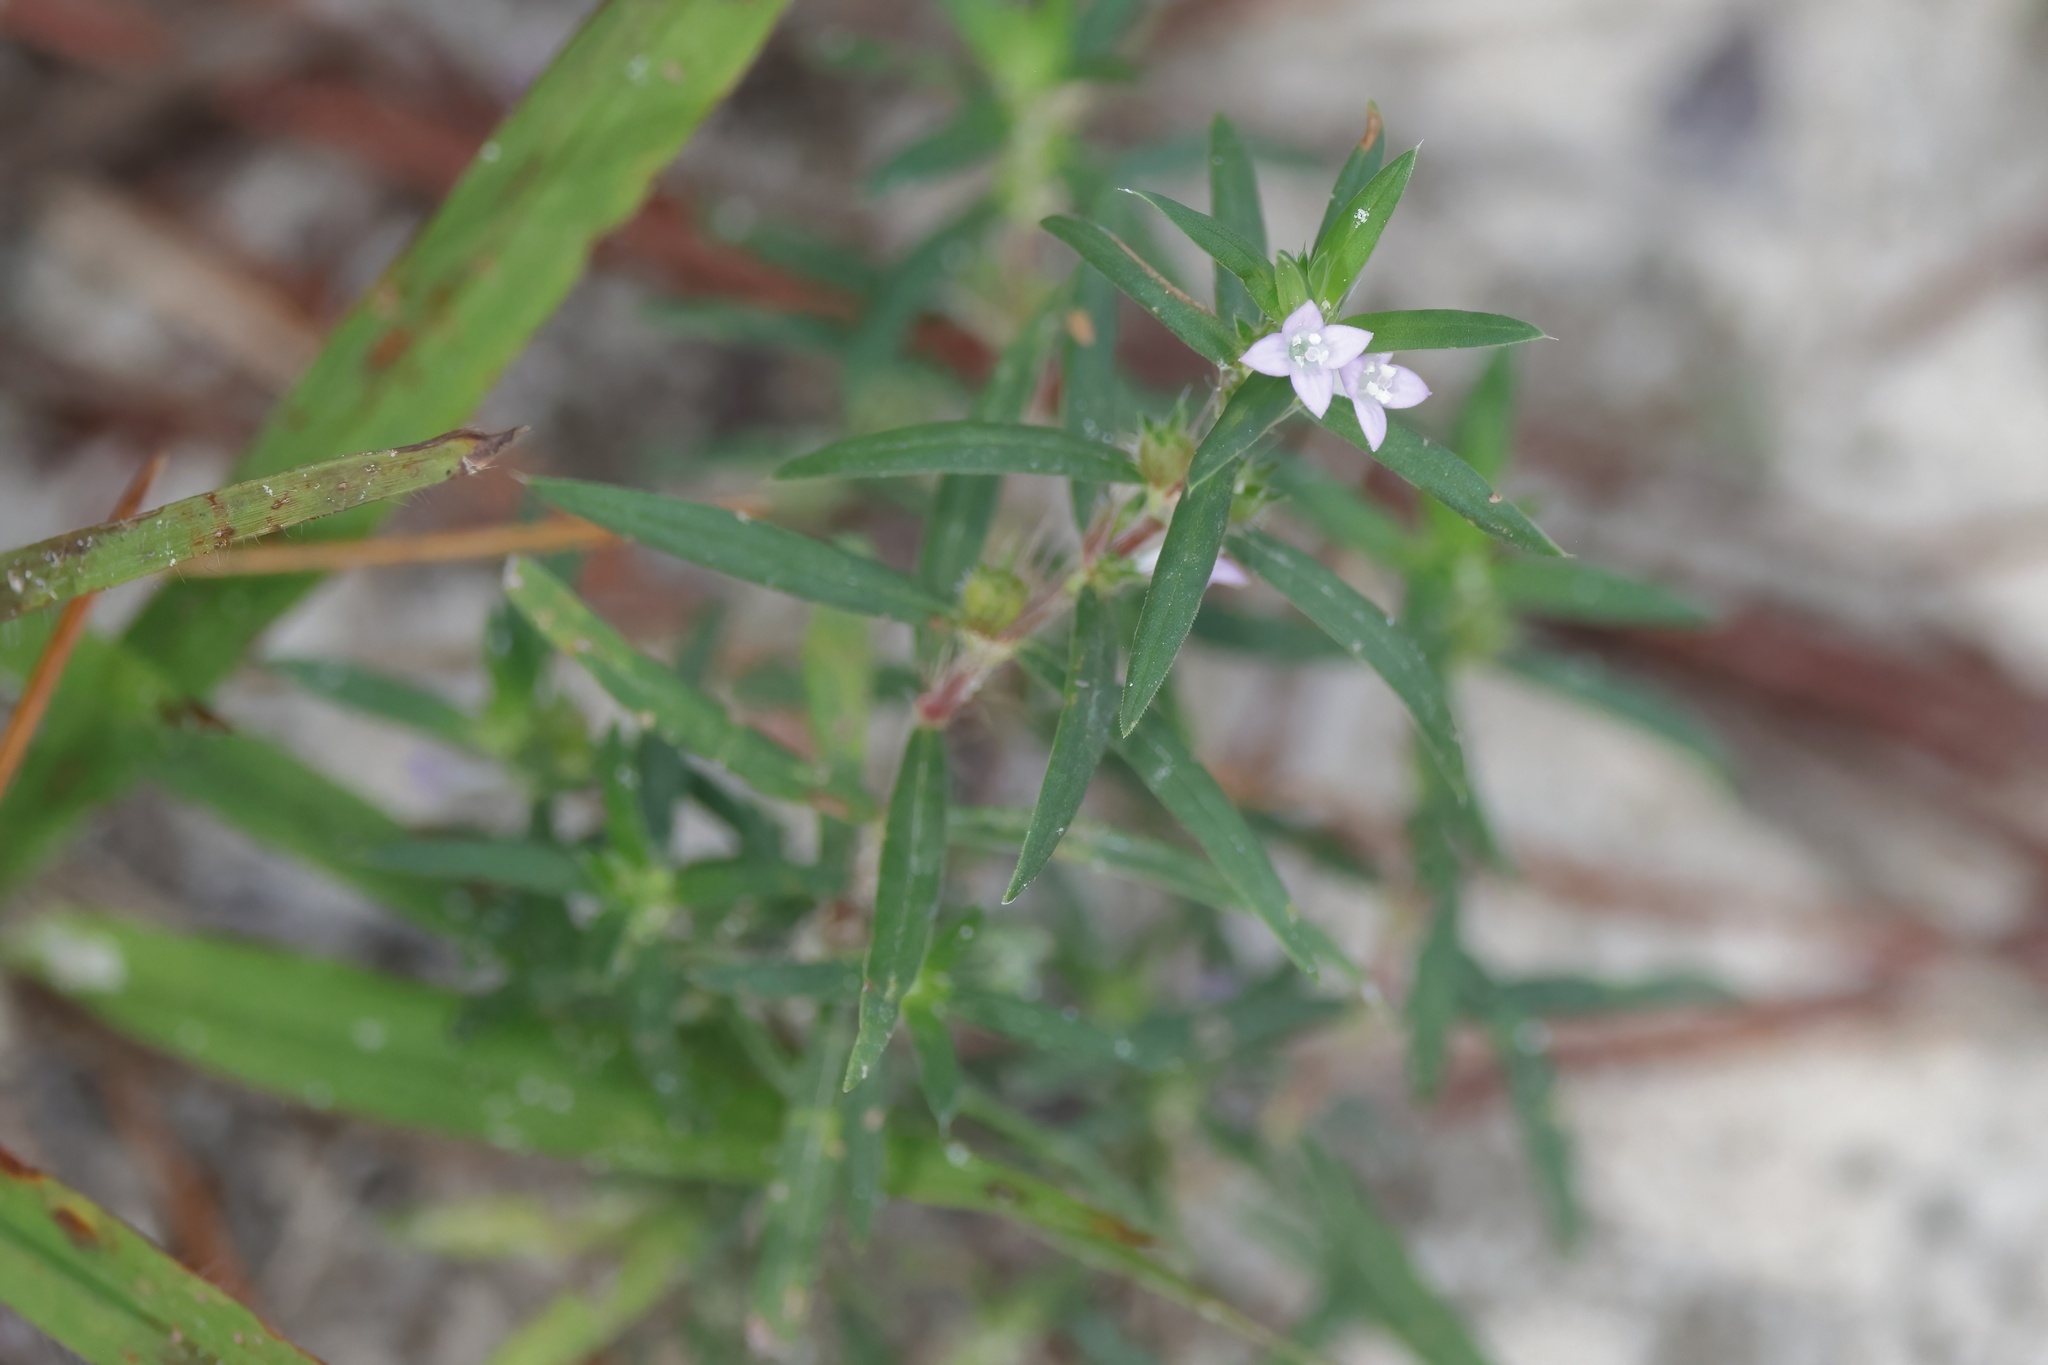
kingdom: Plantae
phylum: Tracheophyta
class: Magnoliopsida
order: Gentianales
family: Rubiaceae
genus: Hexasepalum
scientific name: Hexasepalum teres
